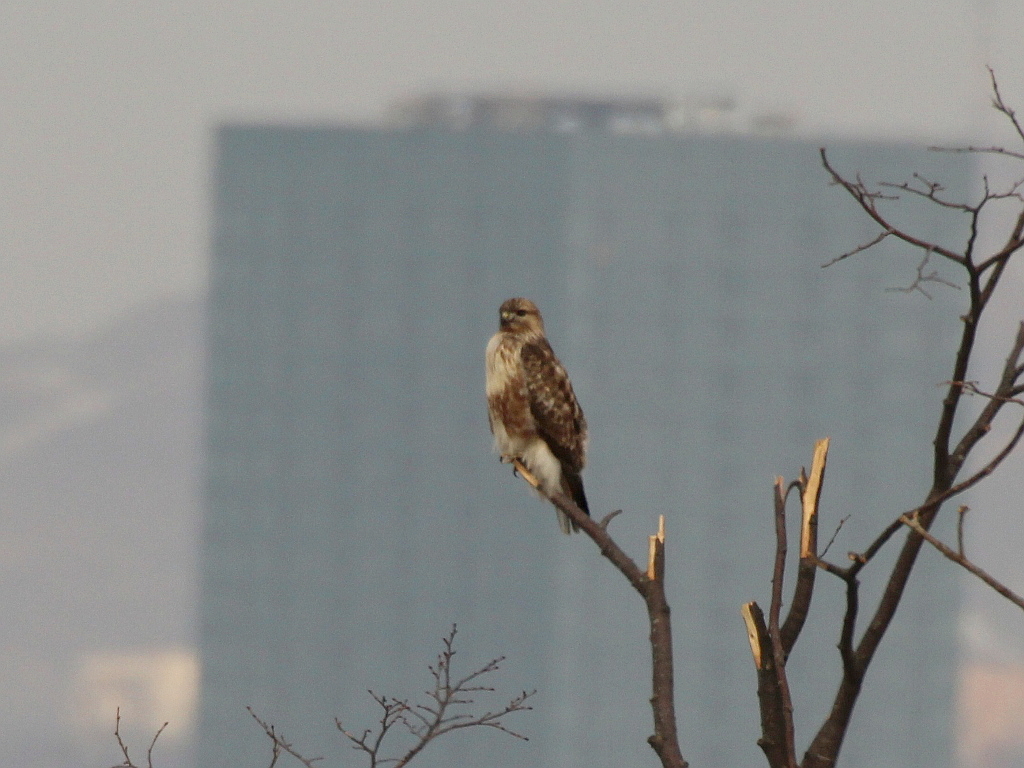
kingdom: Animalia
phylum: Chordata
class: Aves
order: Accipitriformes
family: Accipitridae
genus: Buteo
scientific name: Buteo japonicus
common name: Eastern buzzard
